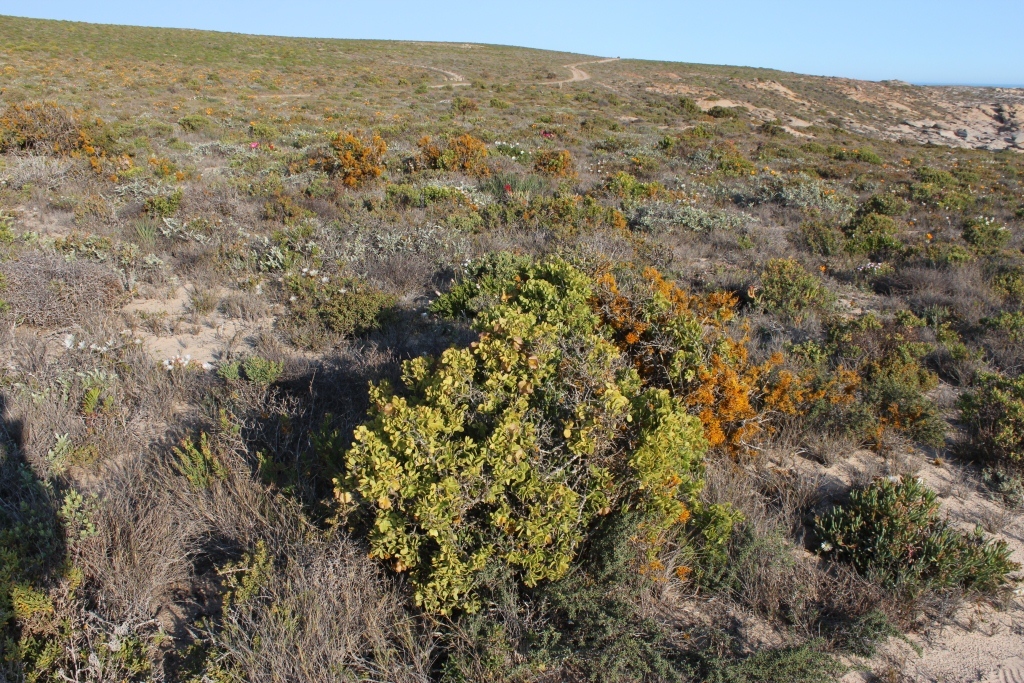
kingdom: Plantae
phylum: Tracheophyta
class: Magnoliopsida
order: Zygophyllales
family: Zygophyllaceae
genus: Roepera
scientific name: Roepera morgsana
